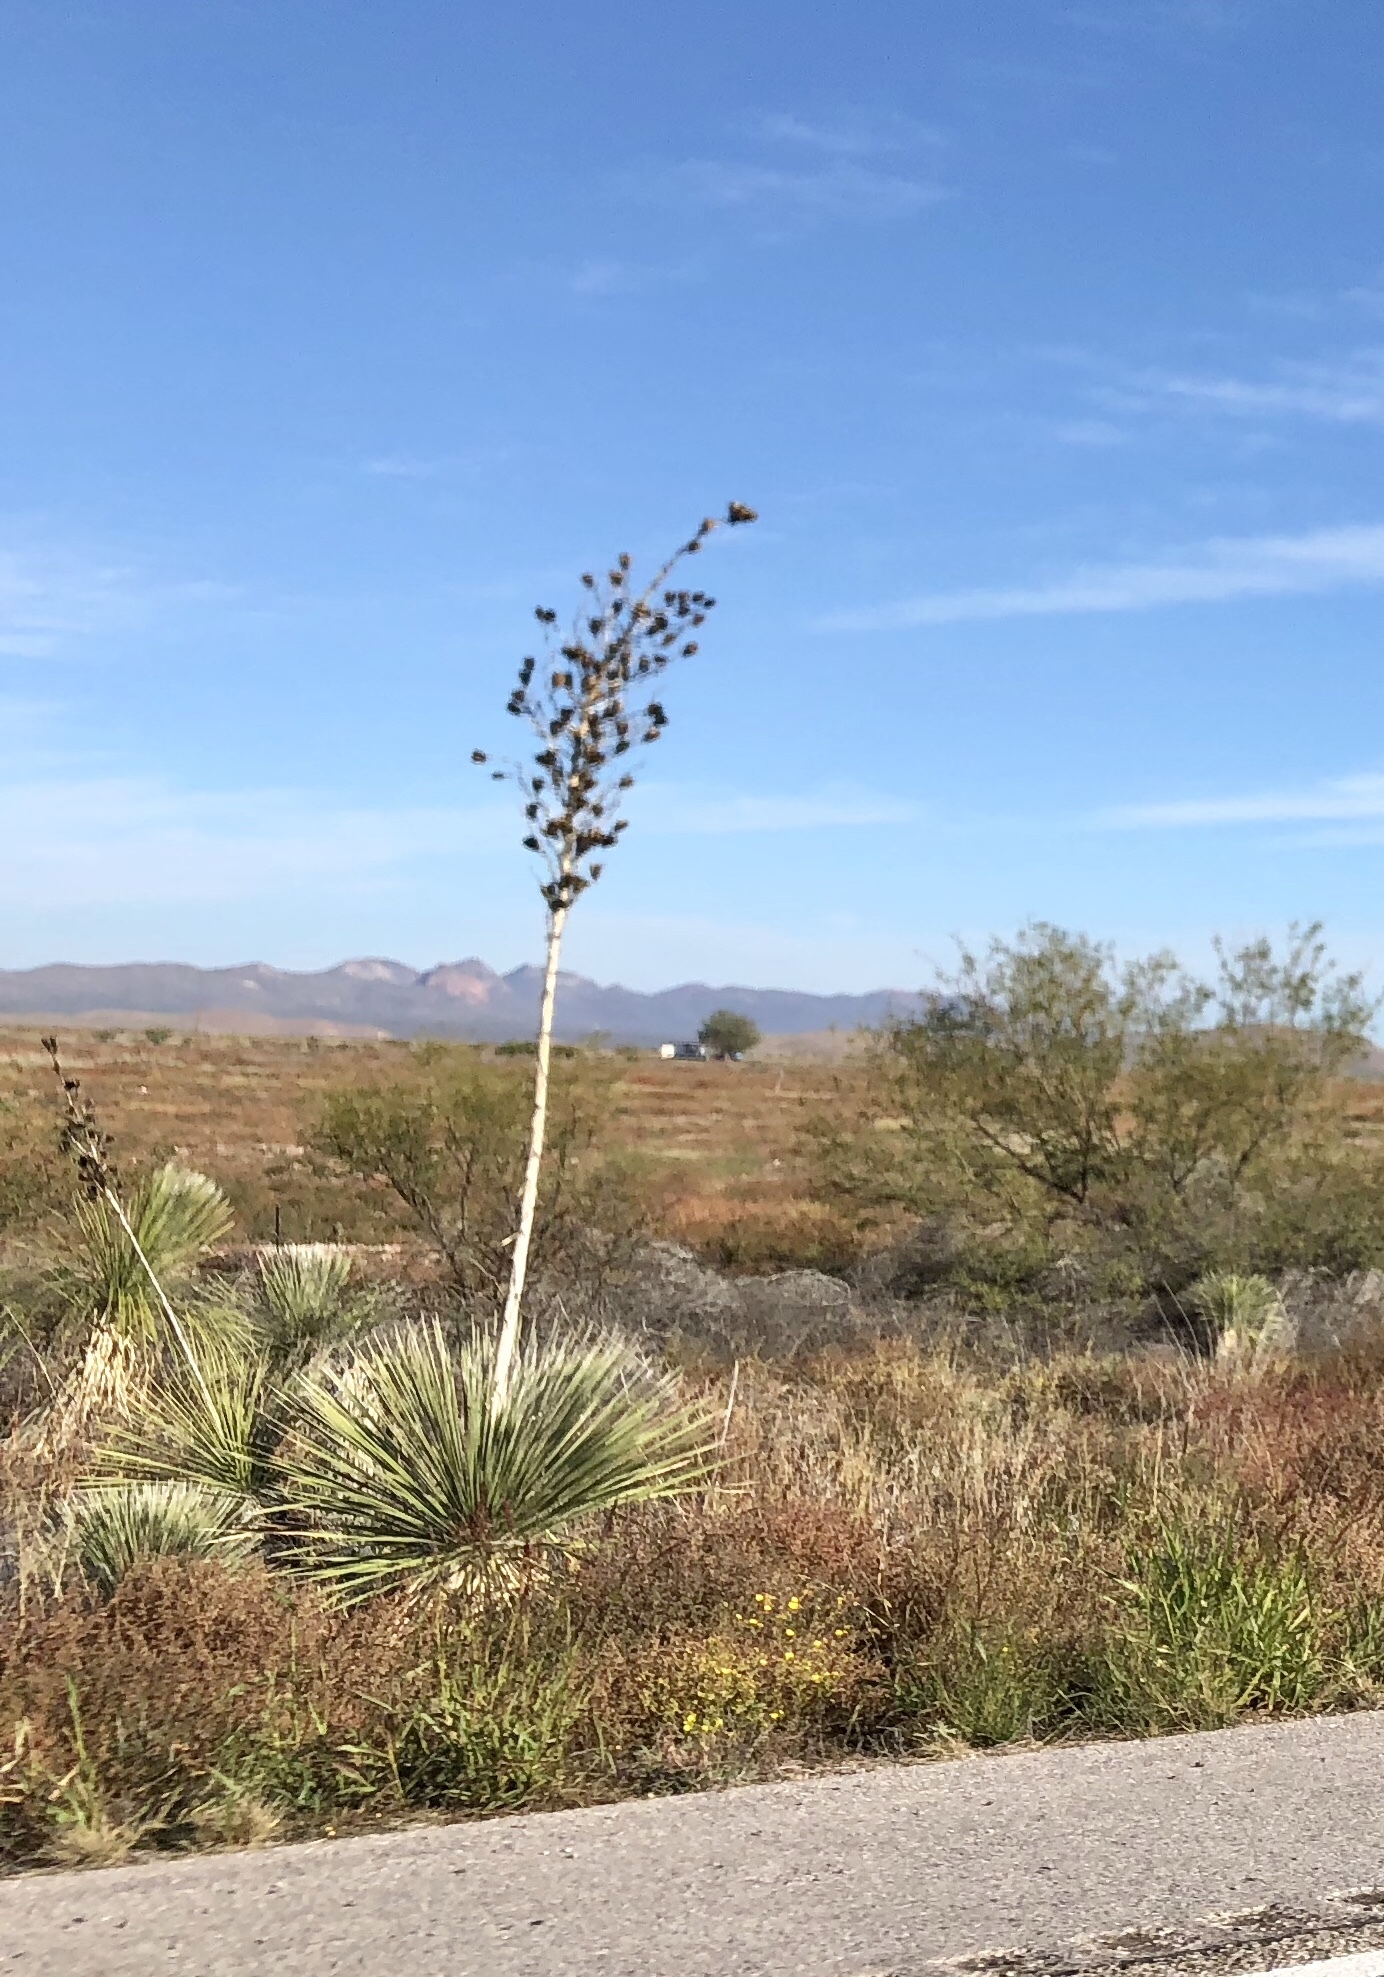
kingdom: Plantae
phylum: Tracheophyta
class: Liliopsida
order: Asparagales
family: Asparagaceae
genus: Yucca
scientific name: Yucca elata
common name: Palmella
